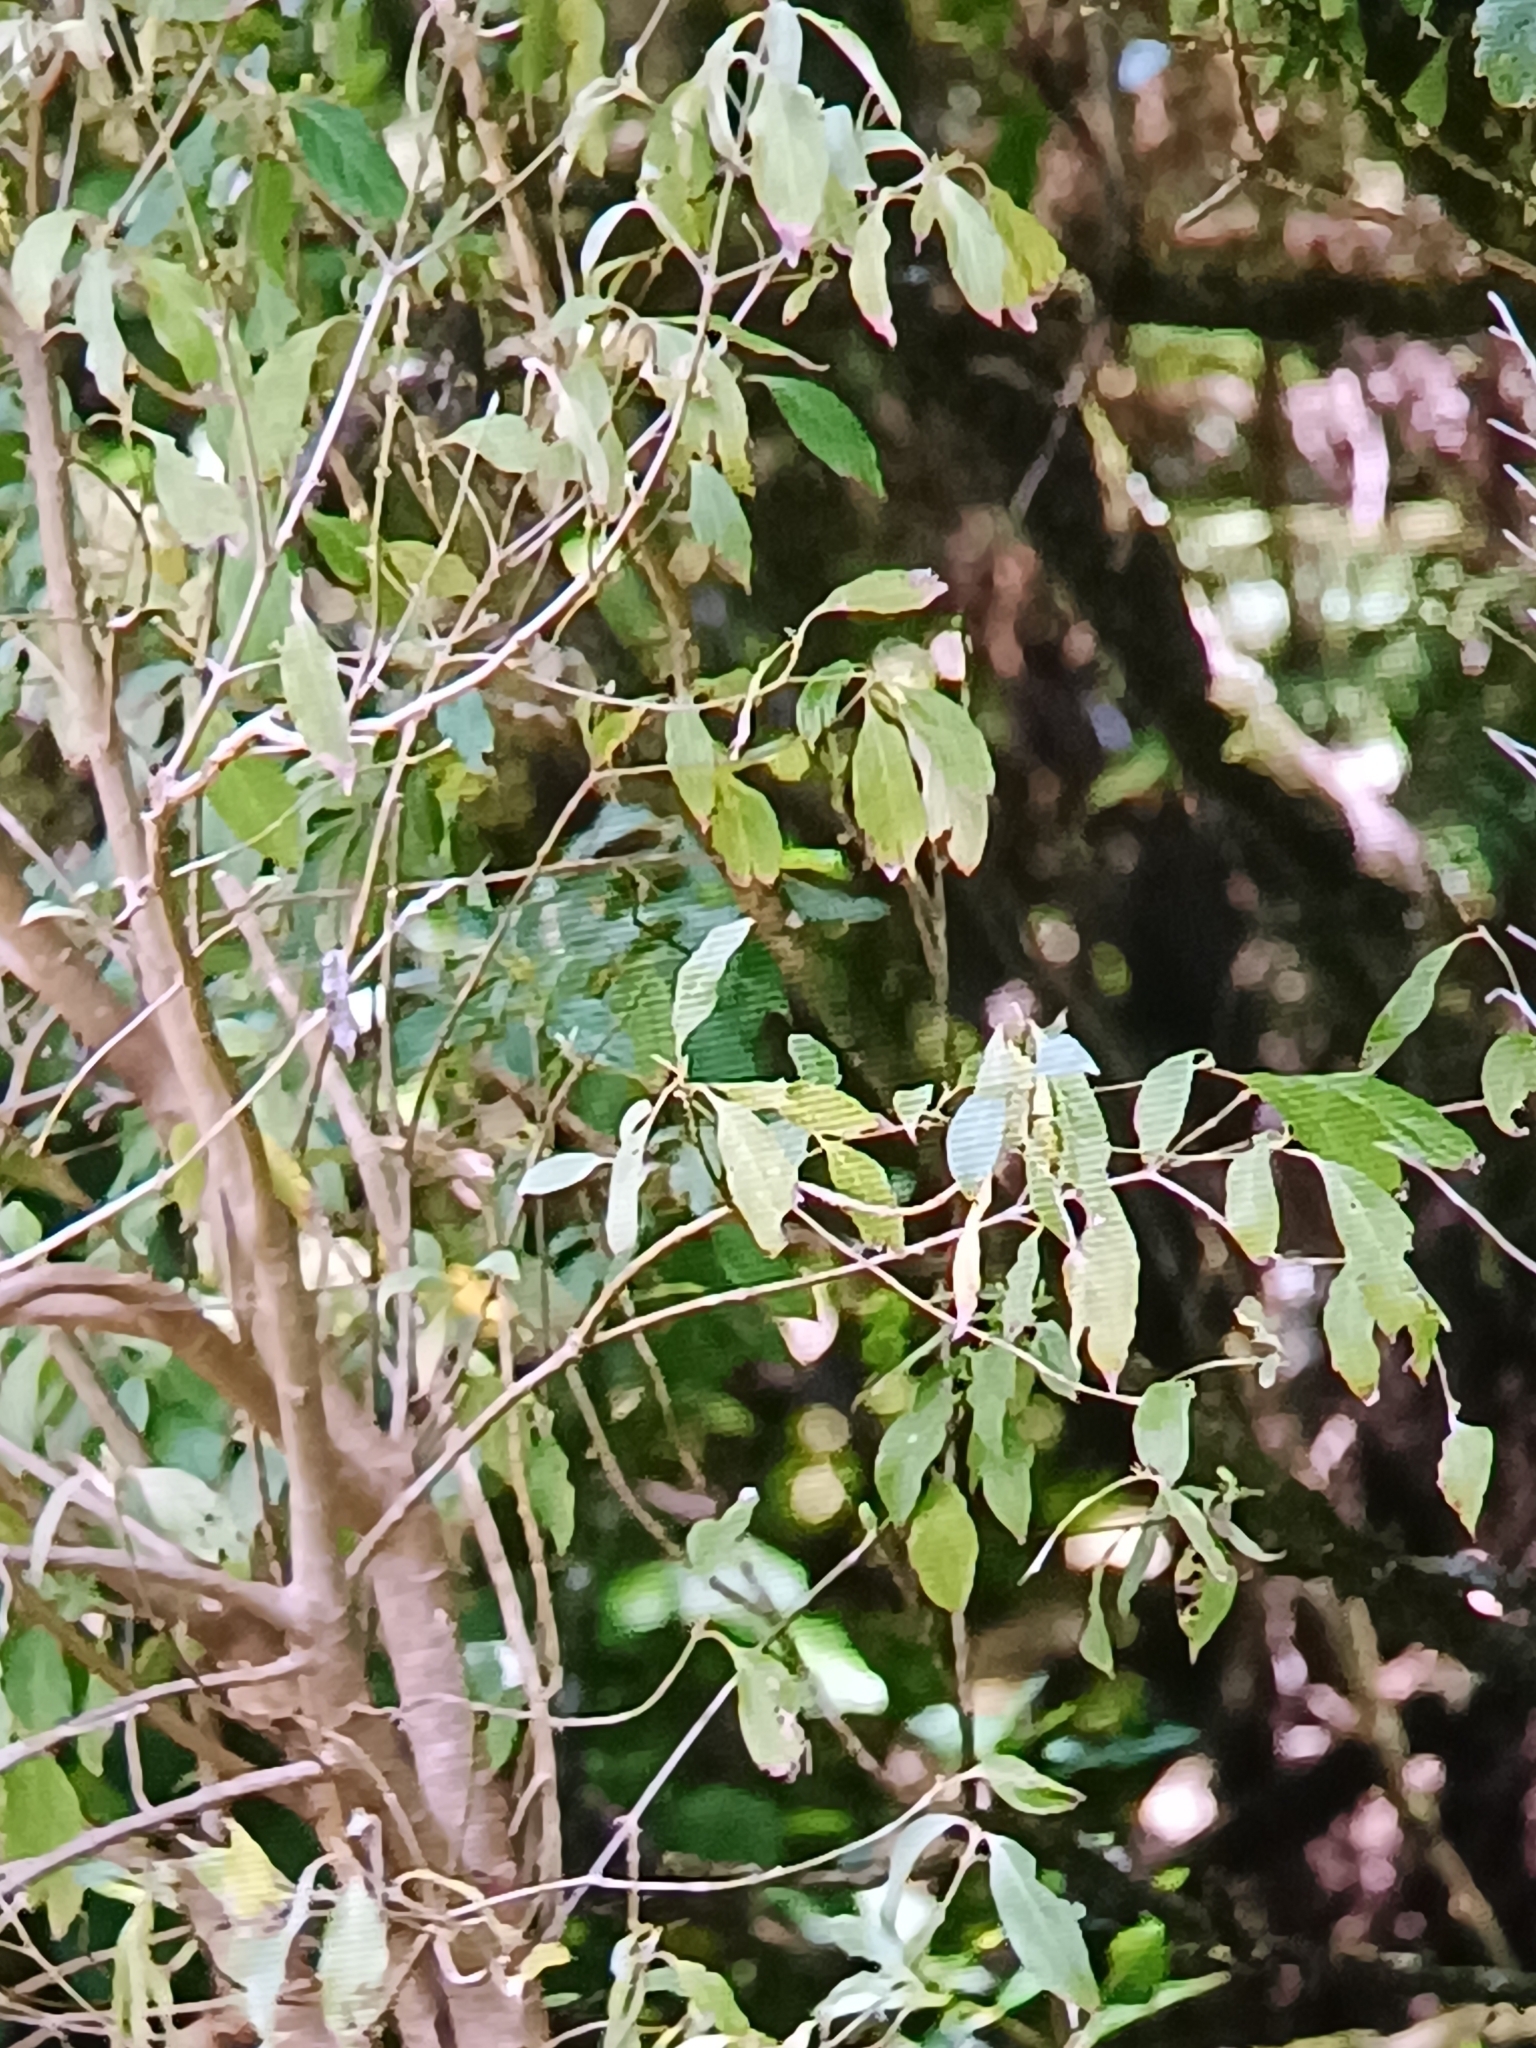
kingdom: Plantae
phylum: Tracheophyta
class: Magnoliopsida
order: Cornales
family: Cornaceae
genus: Cornus
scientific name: Cornus capitata
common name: Bentham's cornel
